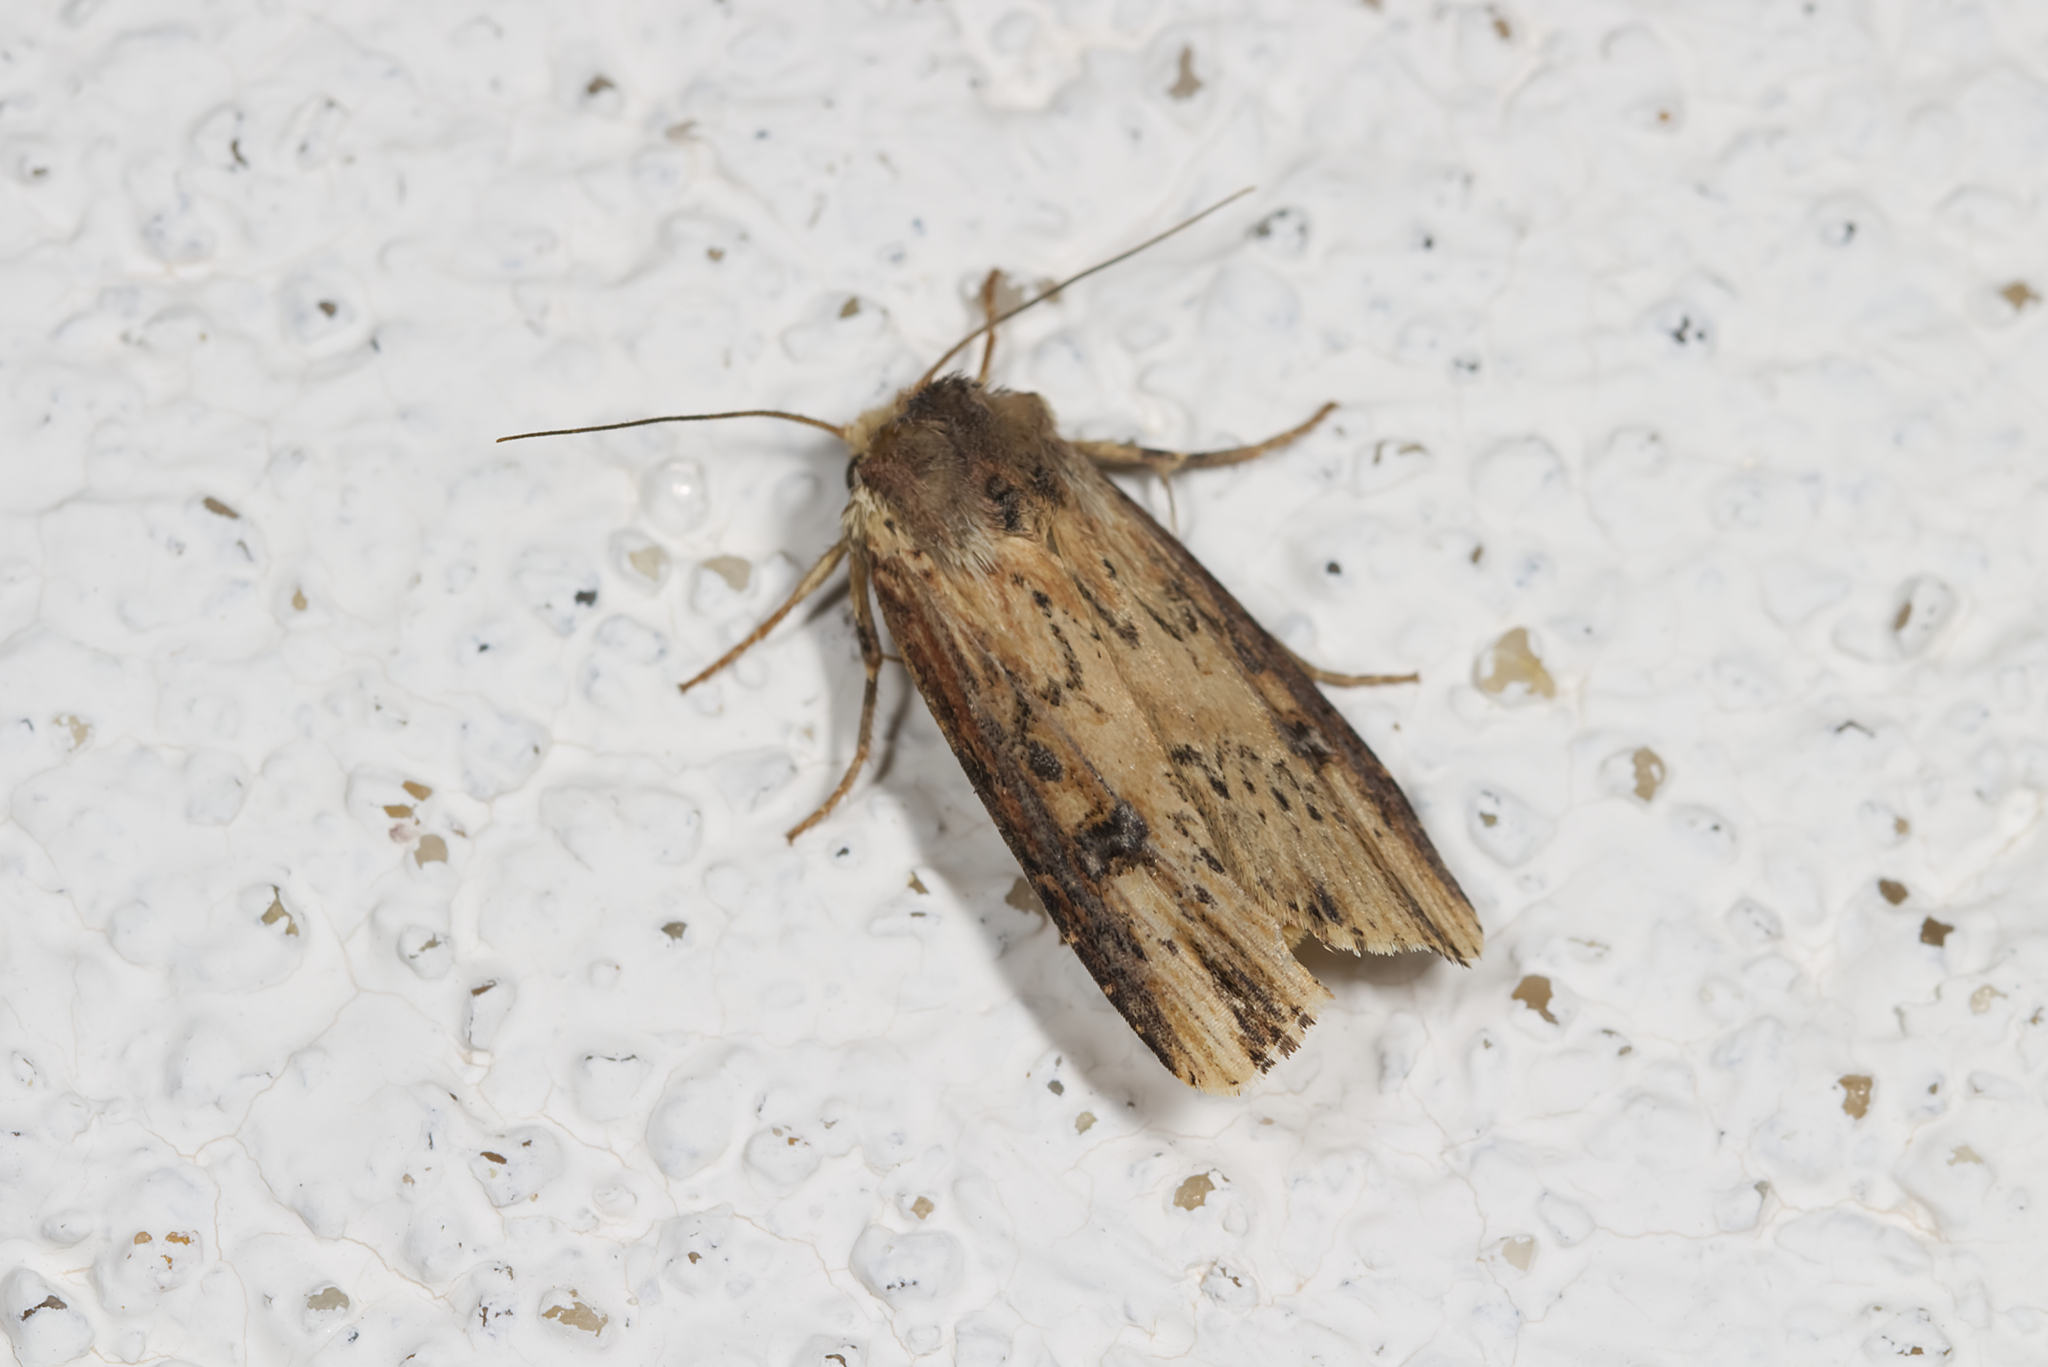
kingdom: Animalia
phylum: Arthropoda
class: Insecta
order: Lepidoptera
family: Noctuidae
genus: Axylia
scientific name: Axylia putris
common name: Flame
